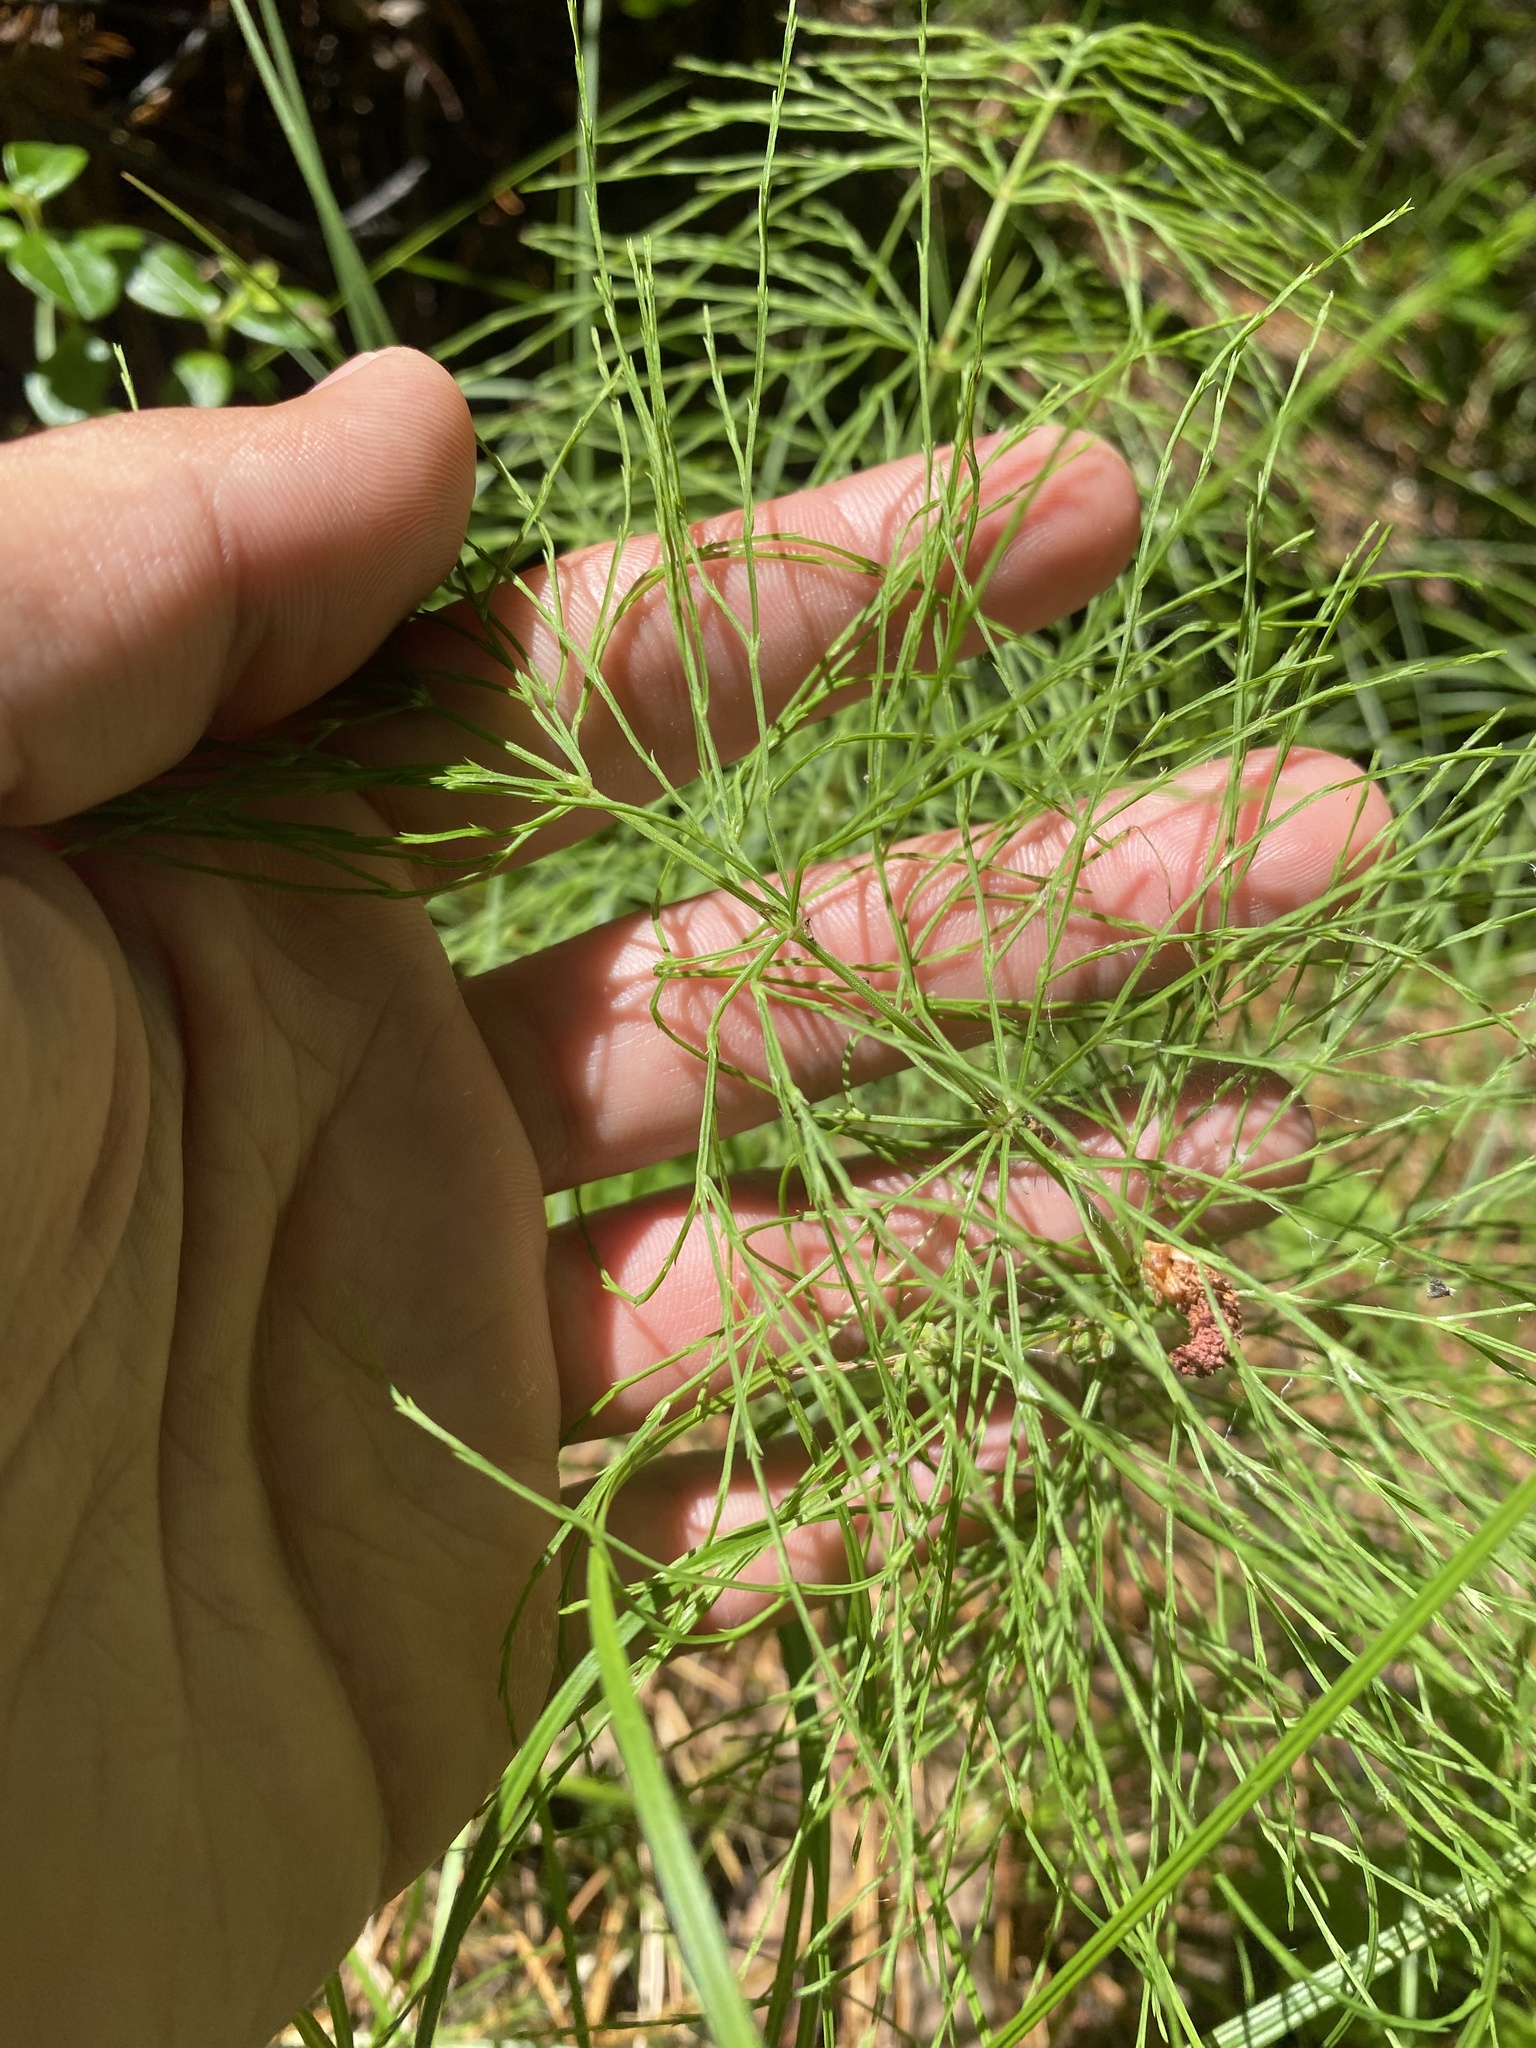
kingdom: Plantae
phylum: Tracheophyta
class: Polypodiopsida
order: Equisetales
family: Equisetaceae
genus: Equisetum
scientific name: Equisetum sylvaticum
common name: Wood horsetail
